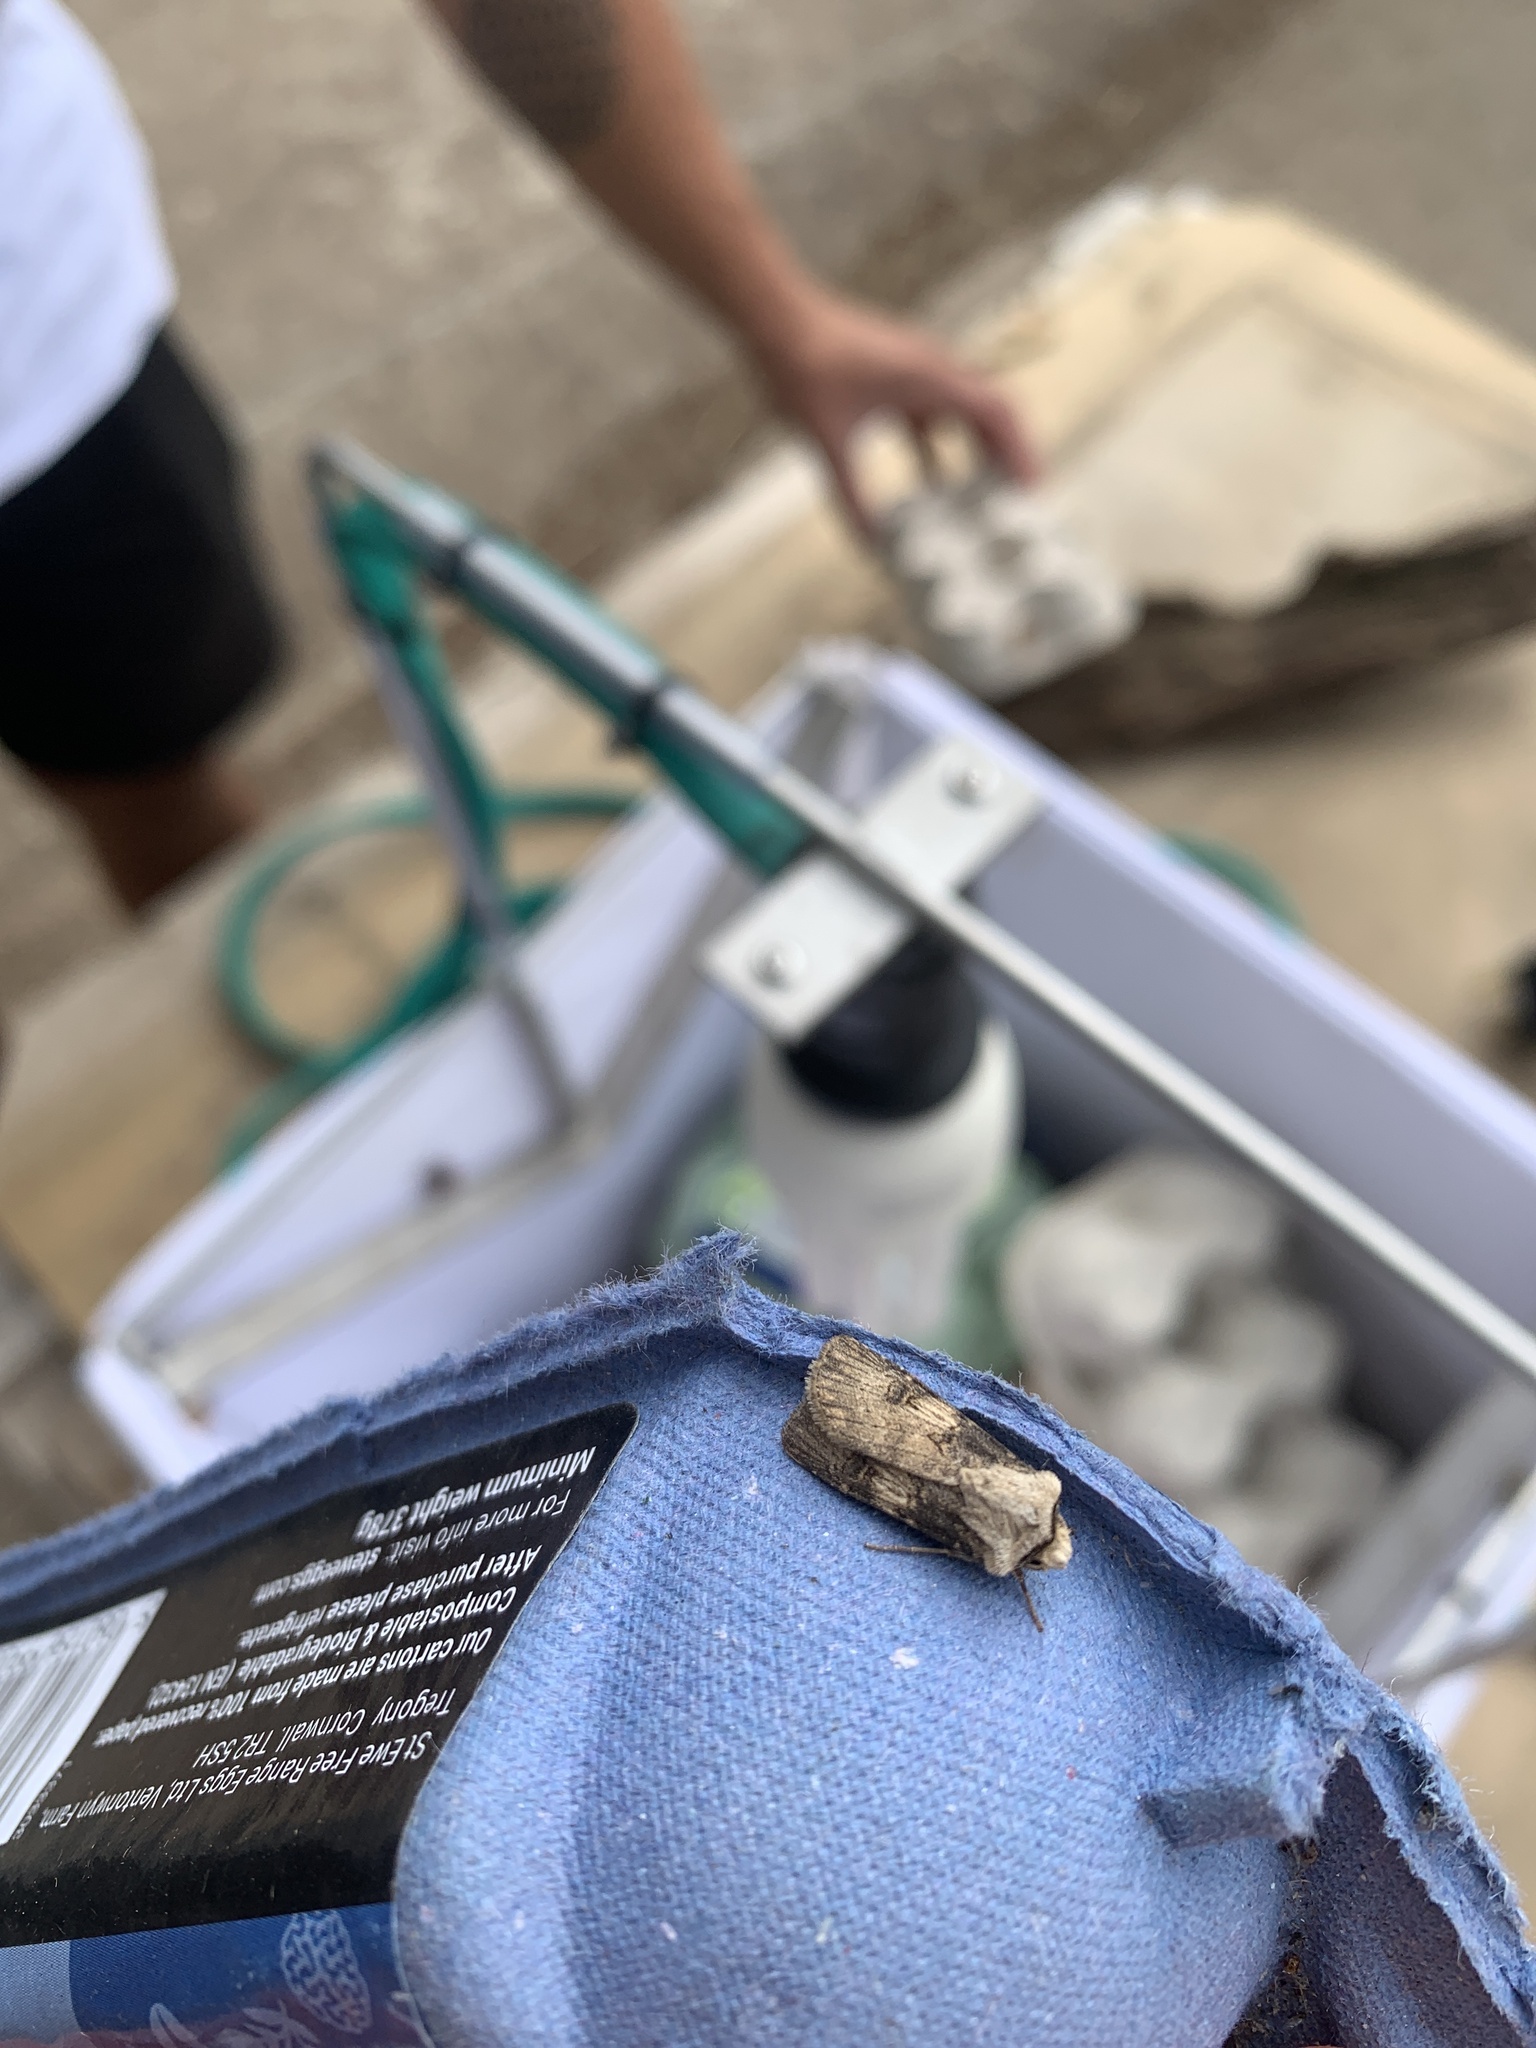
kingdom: Animalia
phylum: Arthropoda
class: Insecta
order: Lepidoptera
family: Noctuidae
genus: Agrotis
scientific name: Agrotis puta
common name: Shuttle-shaped dart
